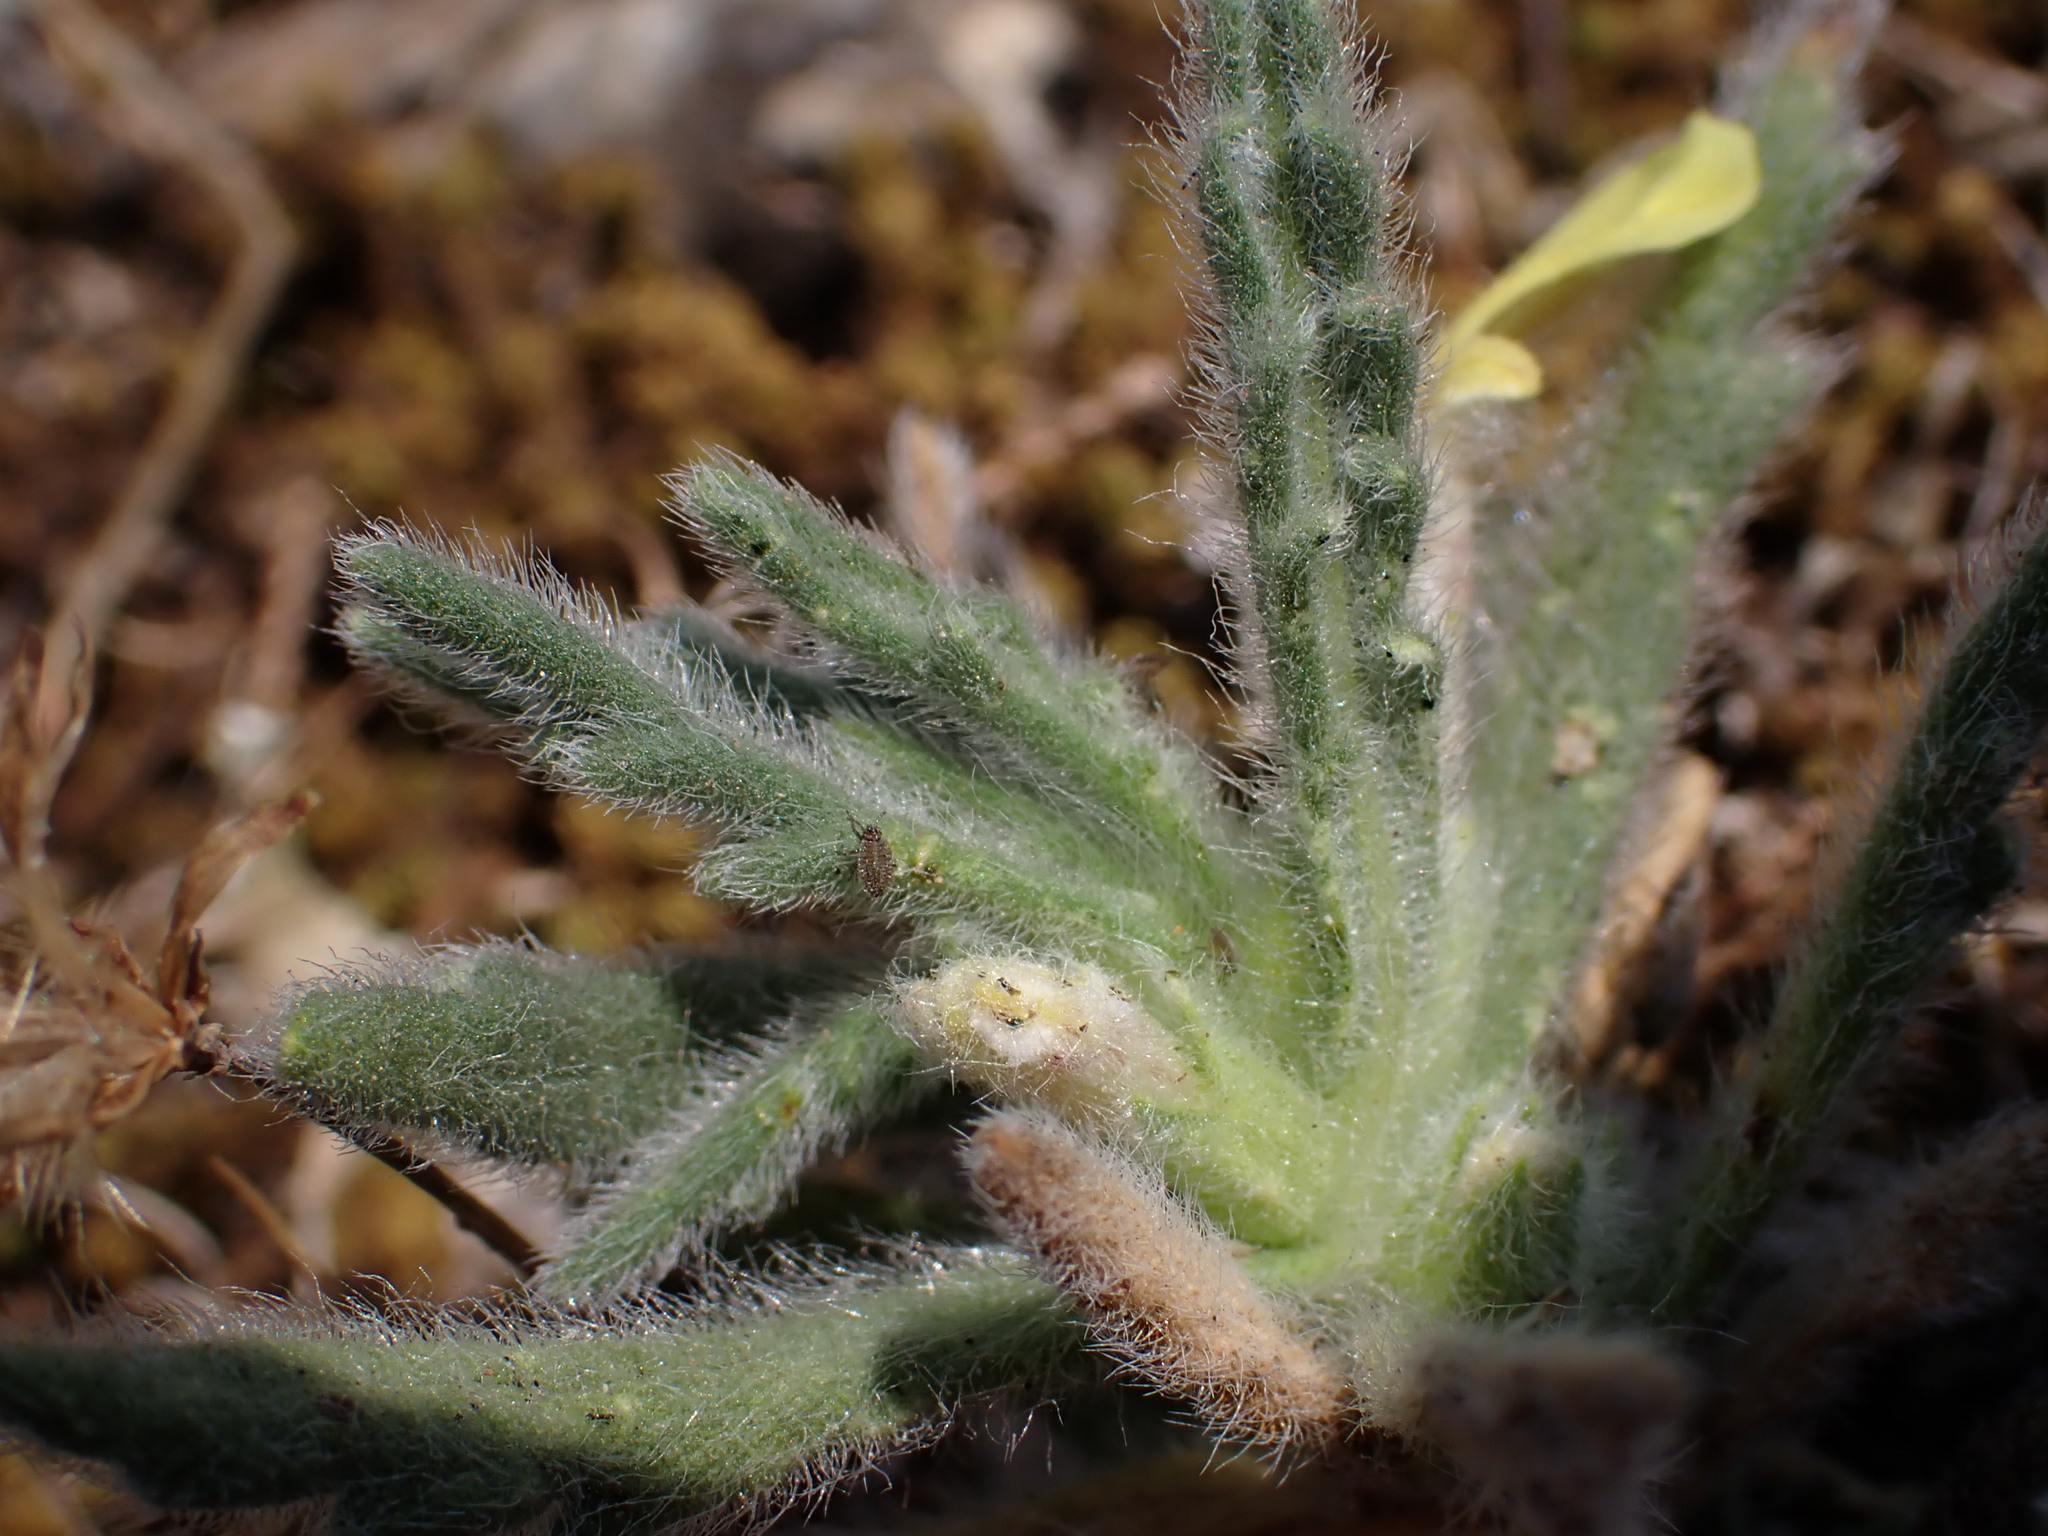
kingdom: Plantae
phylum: Tracheophyta
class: Magnoliopsida
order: Lamiales
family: Lamiaceae
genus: Ajuga
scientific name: Ajuga iva
